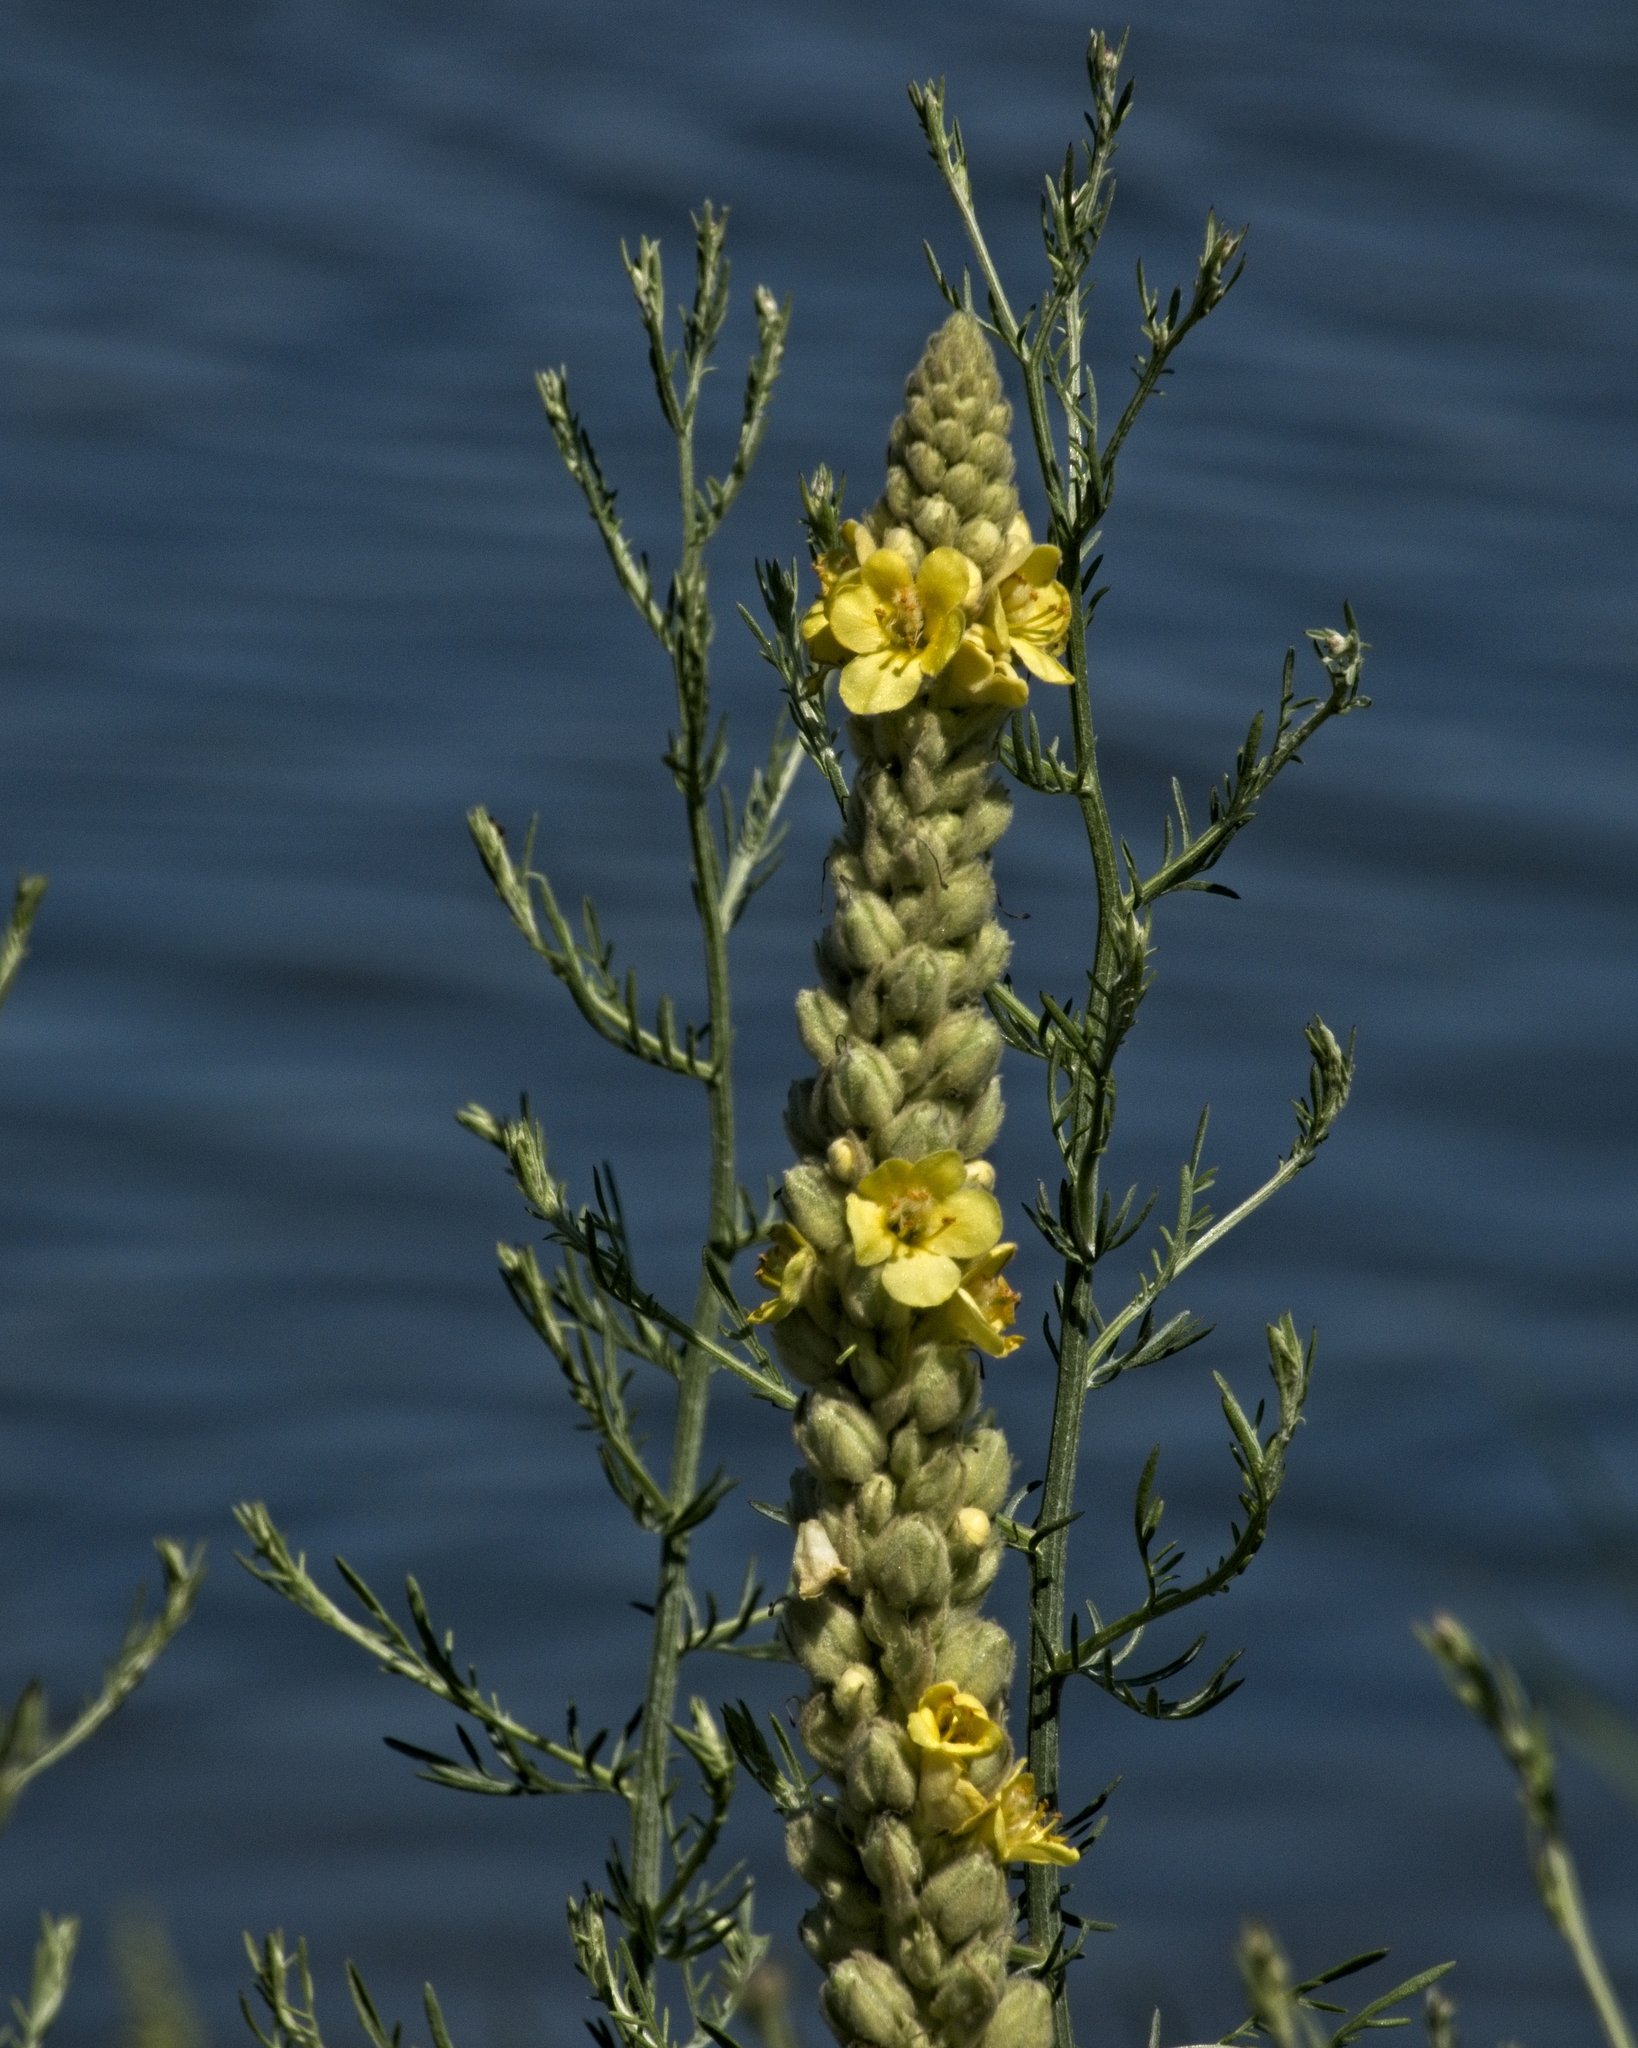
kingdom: Plantae
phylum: Tracheophyta
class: Magnoliopsida
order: Lamiales
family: Scrophulariaceae
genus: Verbascum
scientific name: Verbascum thapsus
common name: Common mullein
